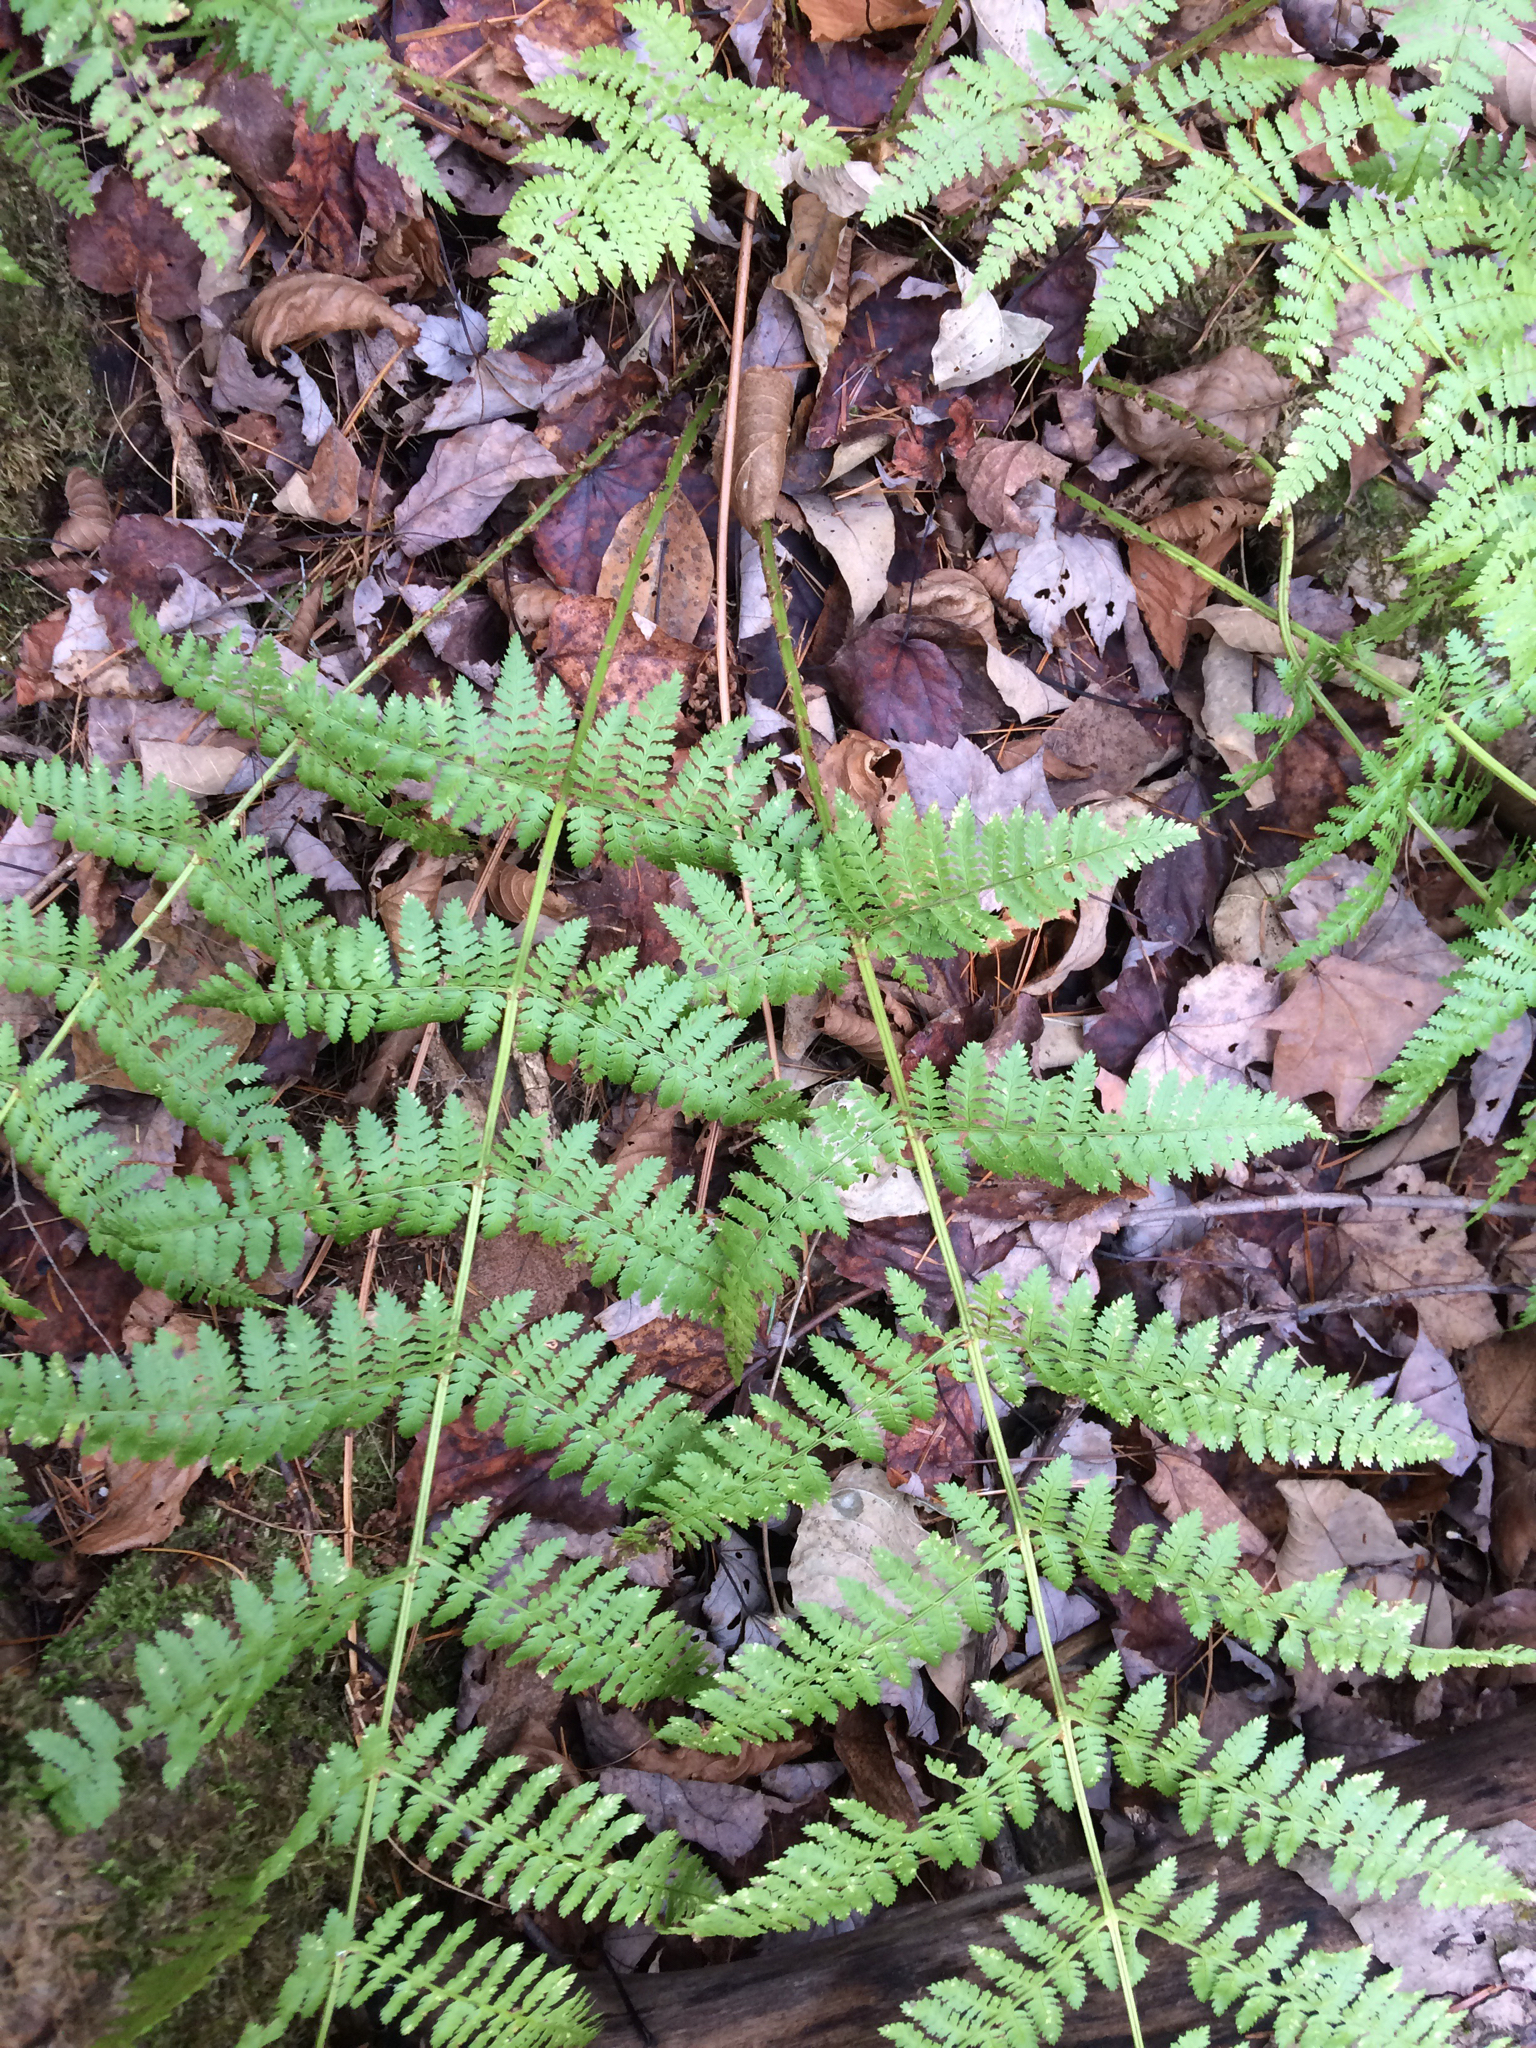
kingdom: Plantae
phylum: Tracheophyta
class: Polypodiopsida
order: Polypodiales
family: Dryopteridaceae
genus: Dryopteris
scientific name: Dryopteris intermedia
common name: Evergreen wood fern
